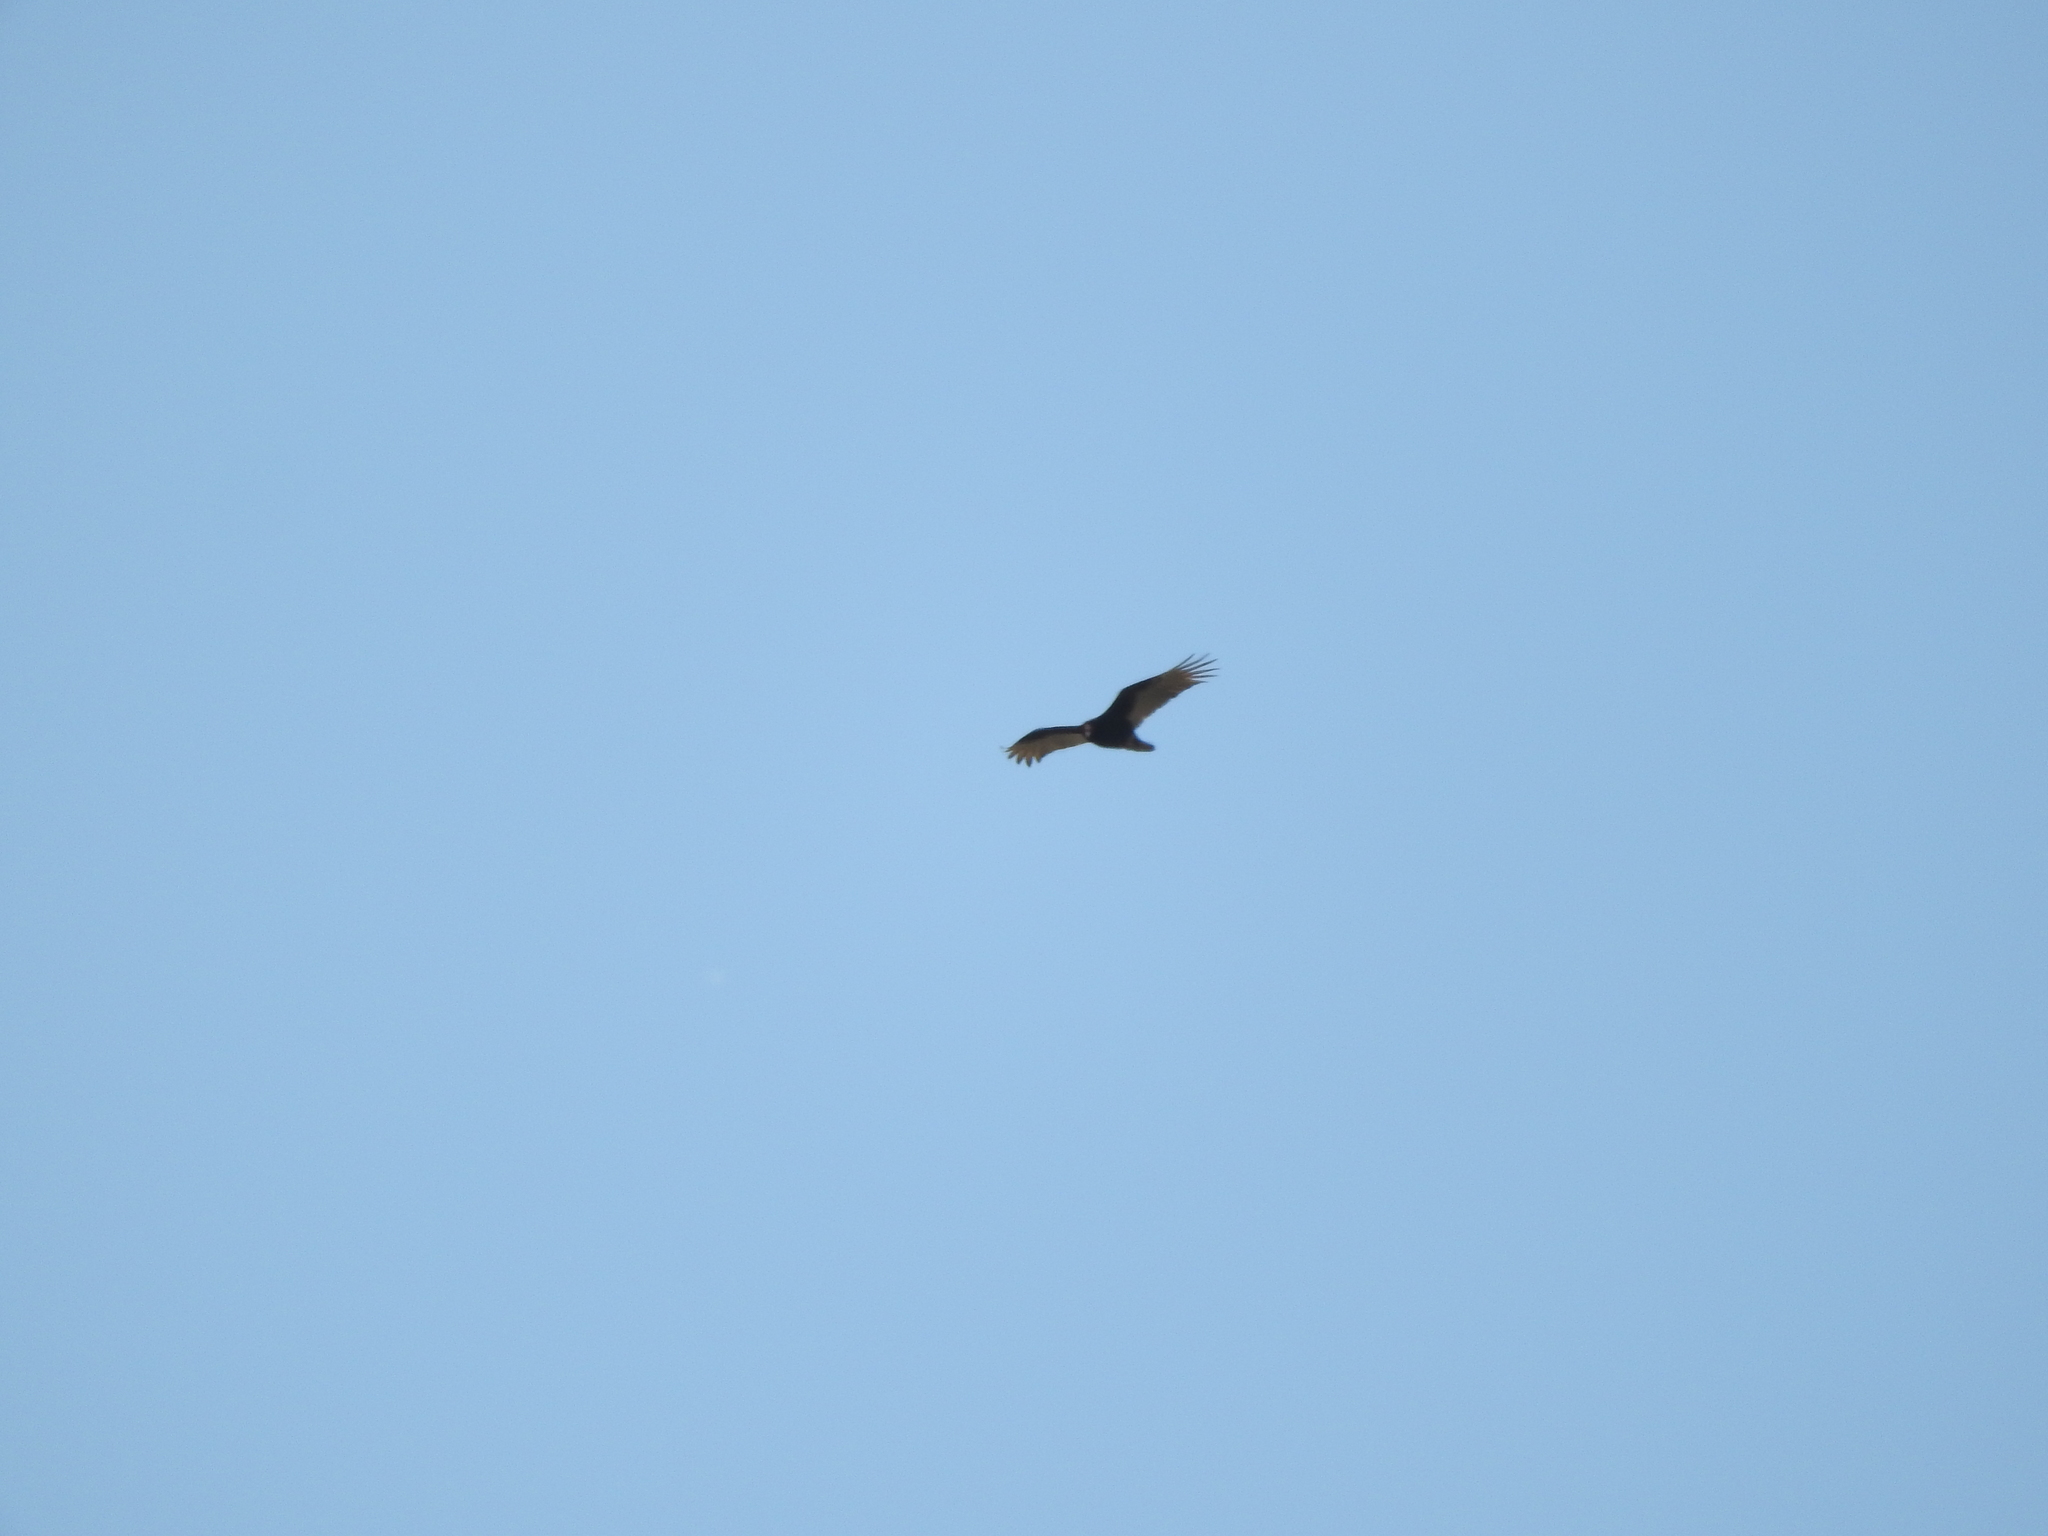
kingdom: Animalia
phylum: Chordata
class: Aves
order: Accipitriformes
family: Cathartidae
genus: Cathartes
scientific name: Cathartes aura
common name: Turkey vulture
